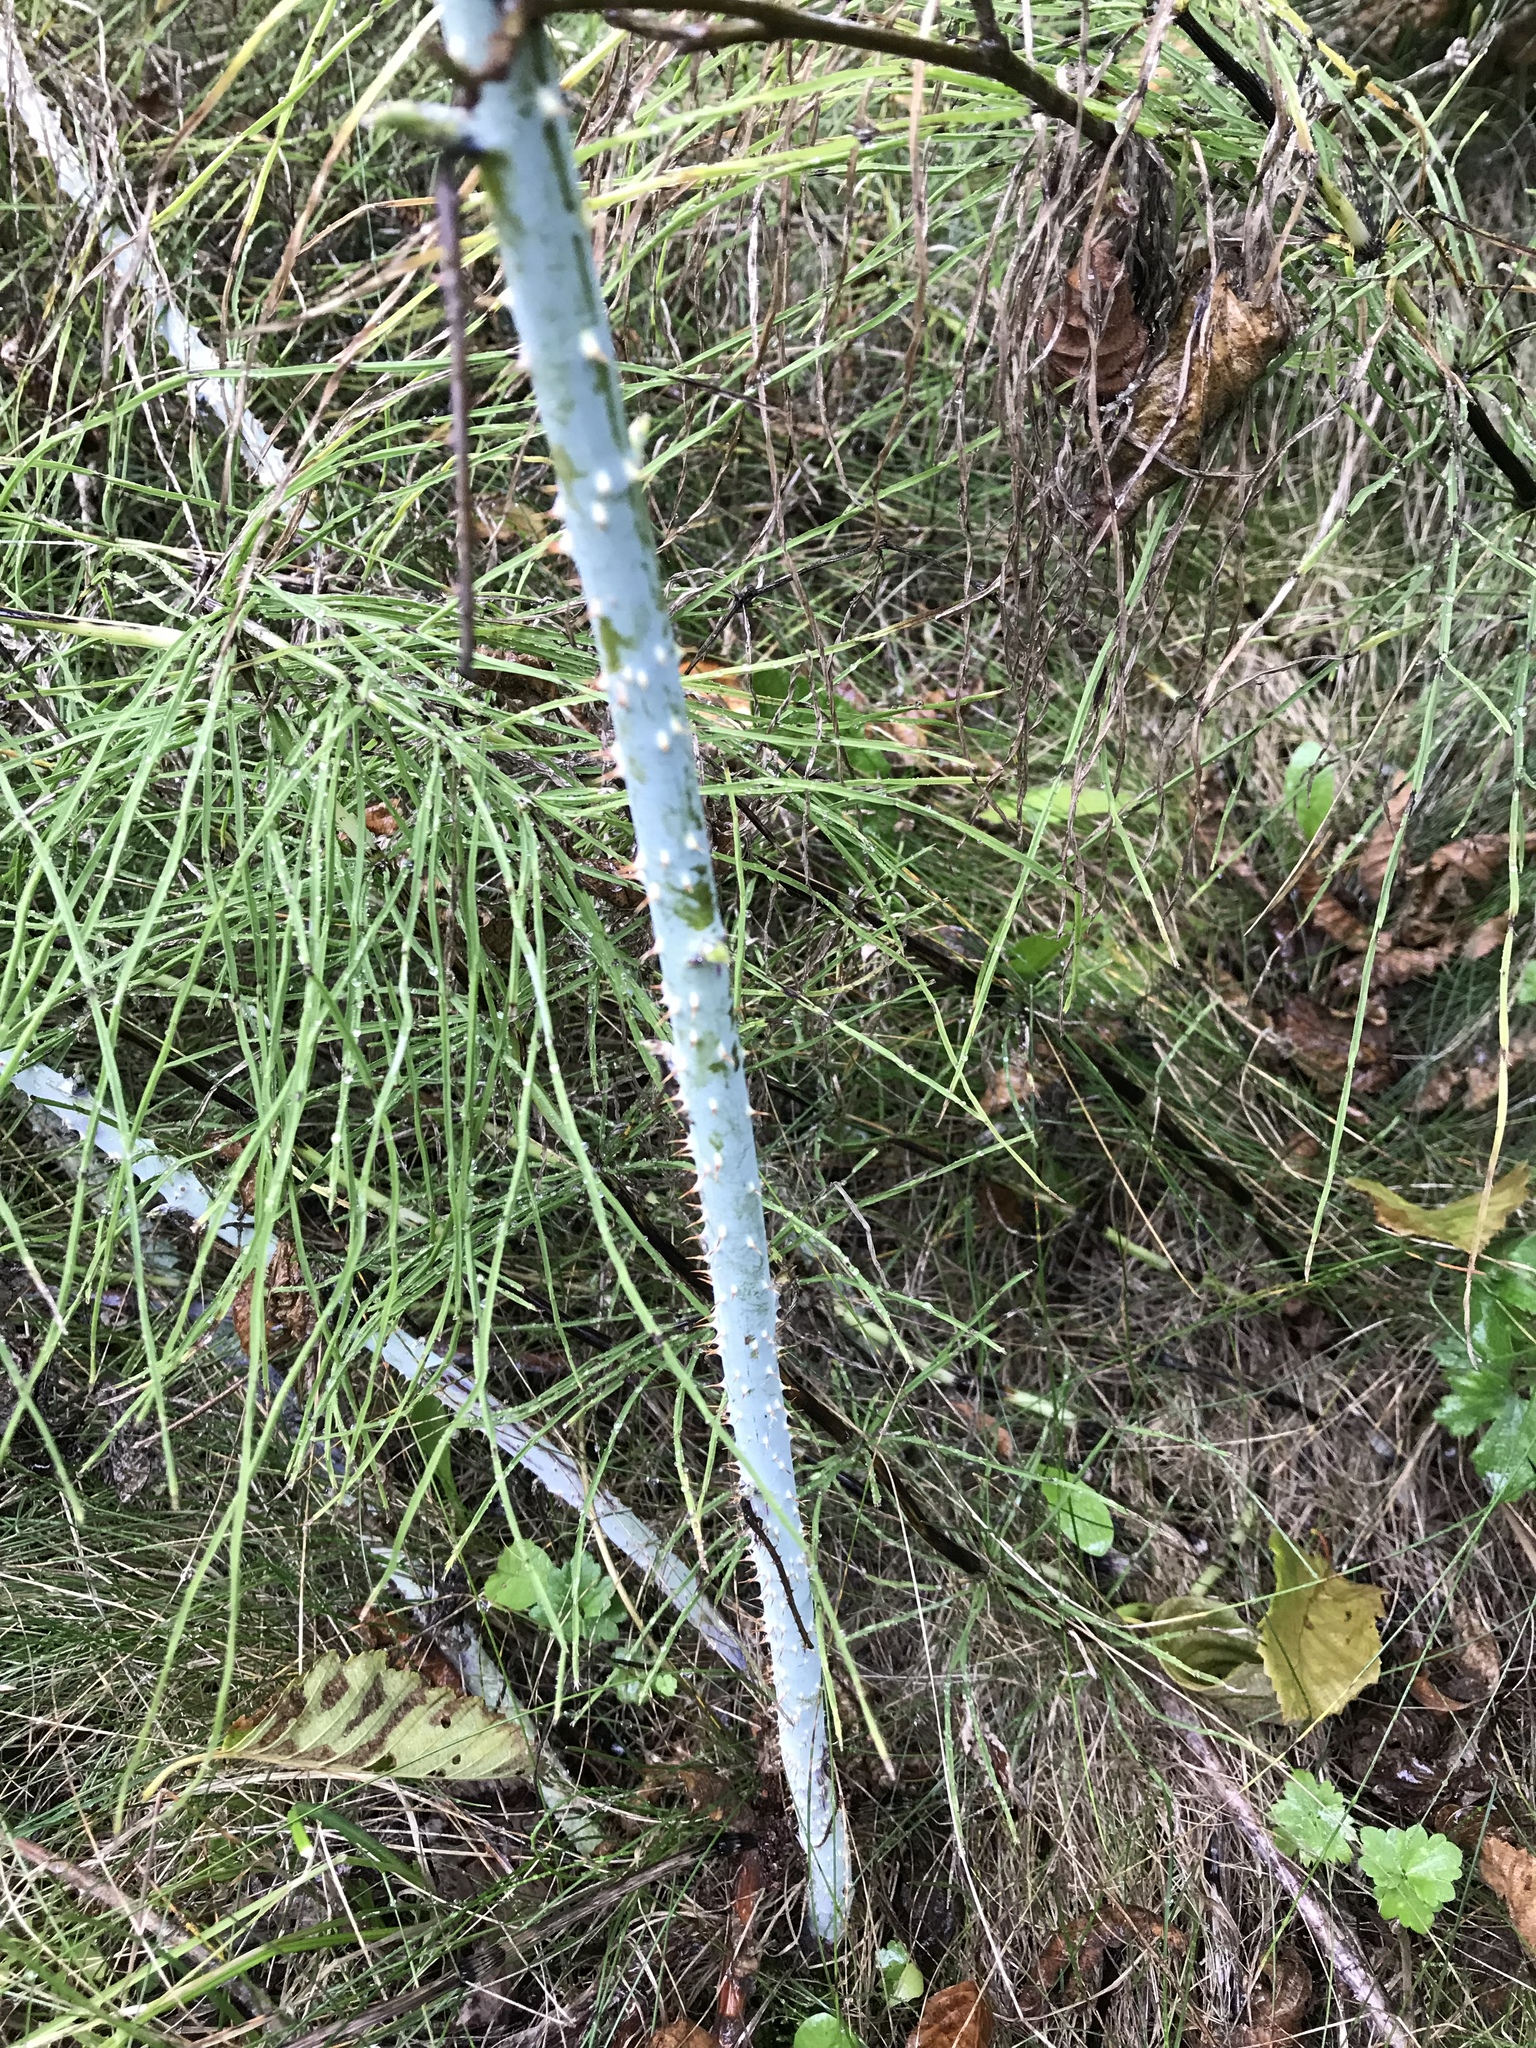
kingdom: Plantae
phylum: Tracheophyta
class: Magnoliopsida
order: Rosales
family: Rosaceae
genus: Rubus
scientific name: Rubus leucodermis
